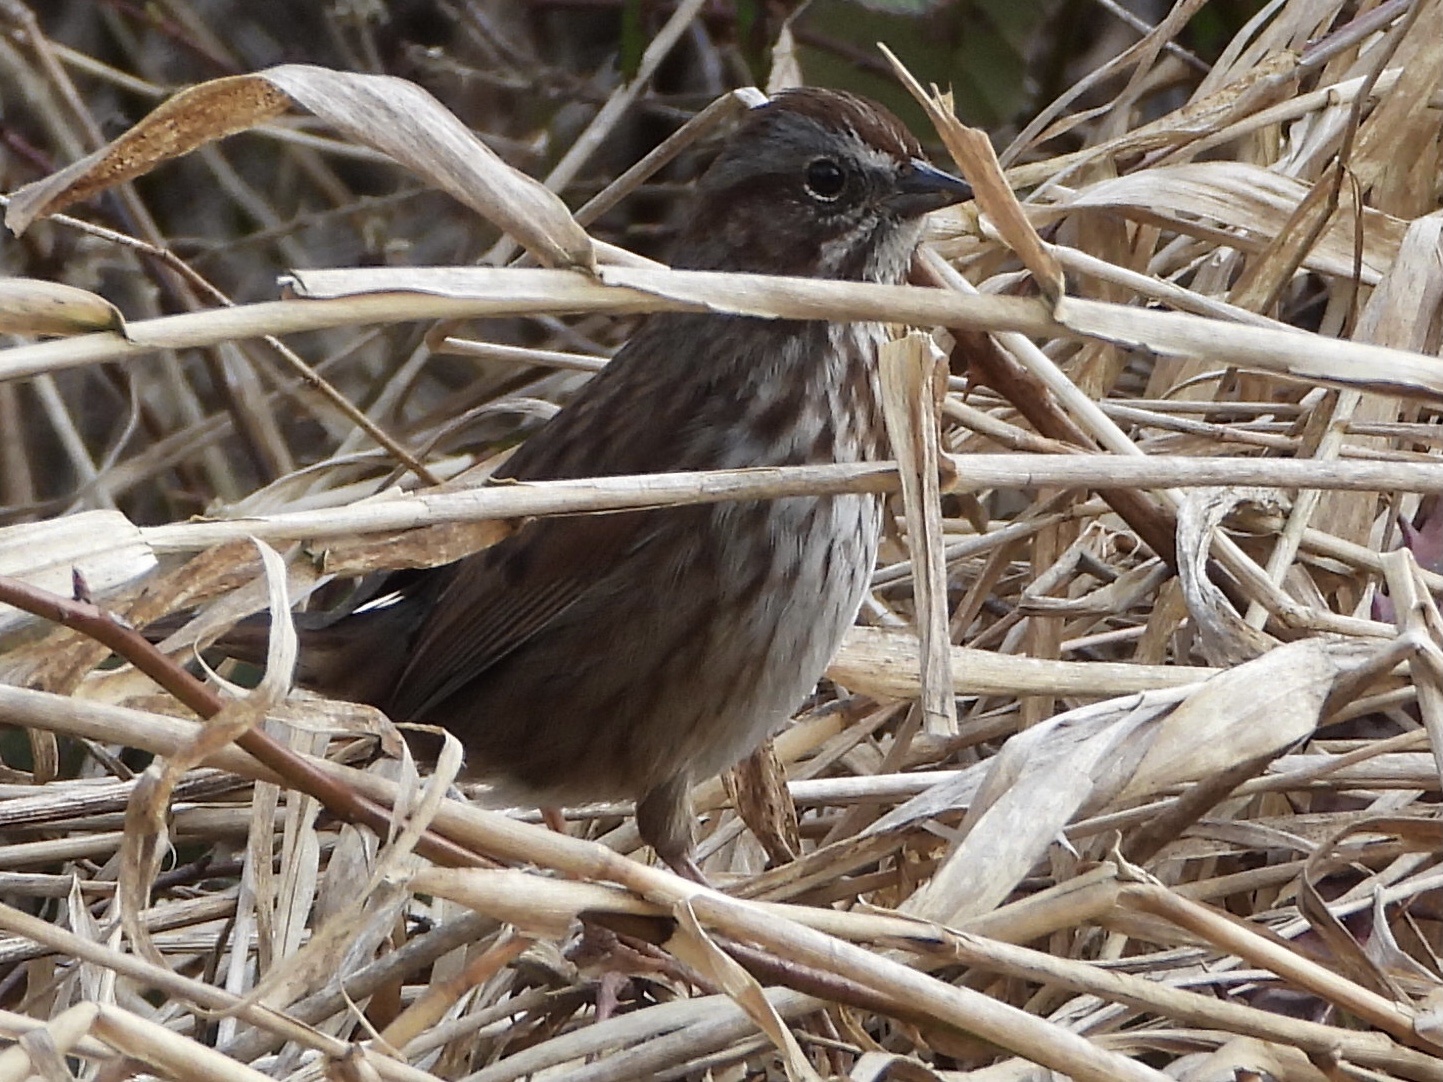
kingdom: Animalia
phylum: Chordata
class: Aves
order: Passeriformes
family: Passerellidae
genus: Melospiza
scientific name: Melospiza melodia
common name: Song sparrow
